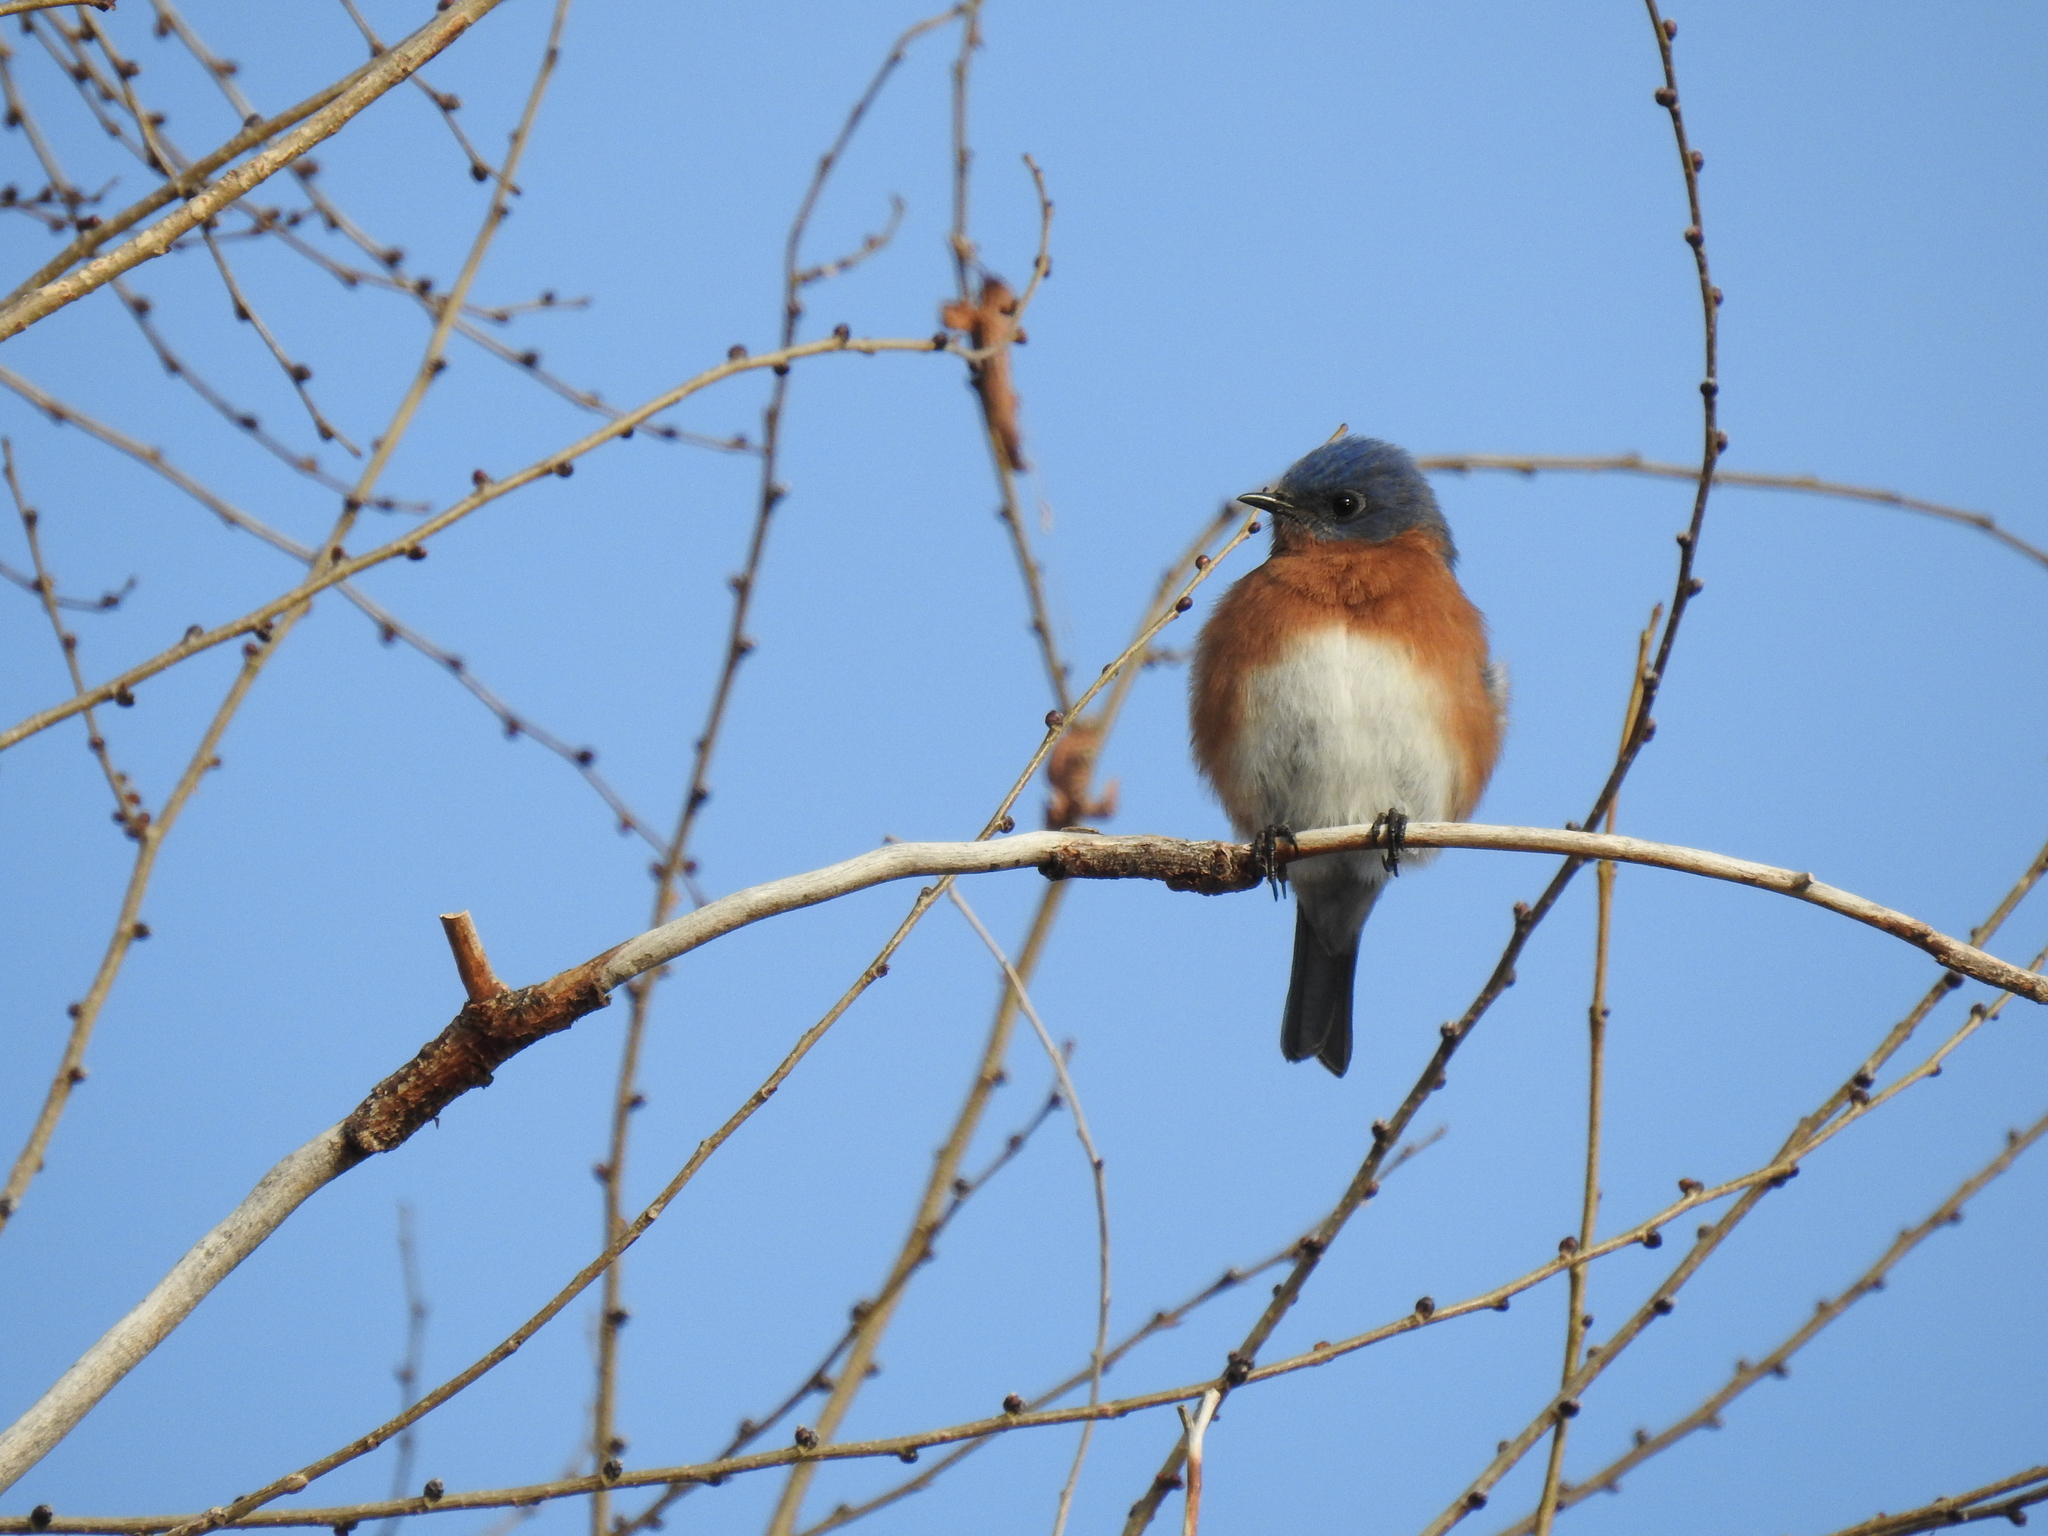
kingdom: Animalia
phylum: Chordata
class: Aves
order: Passeriformes
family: Turdidae
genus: Sialia
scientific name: Sialia sialis
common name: Eastern bluebird
